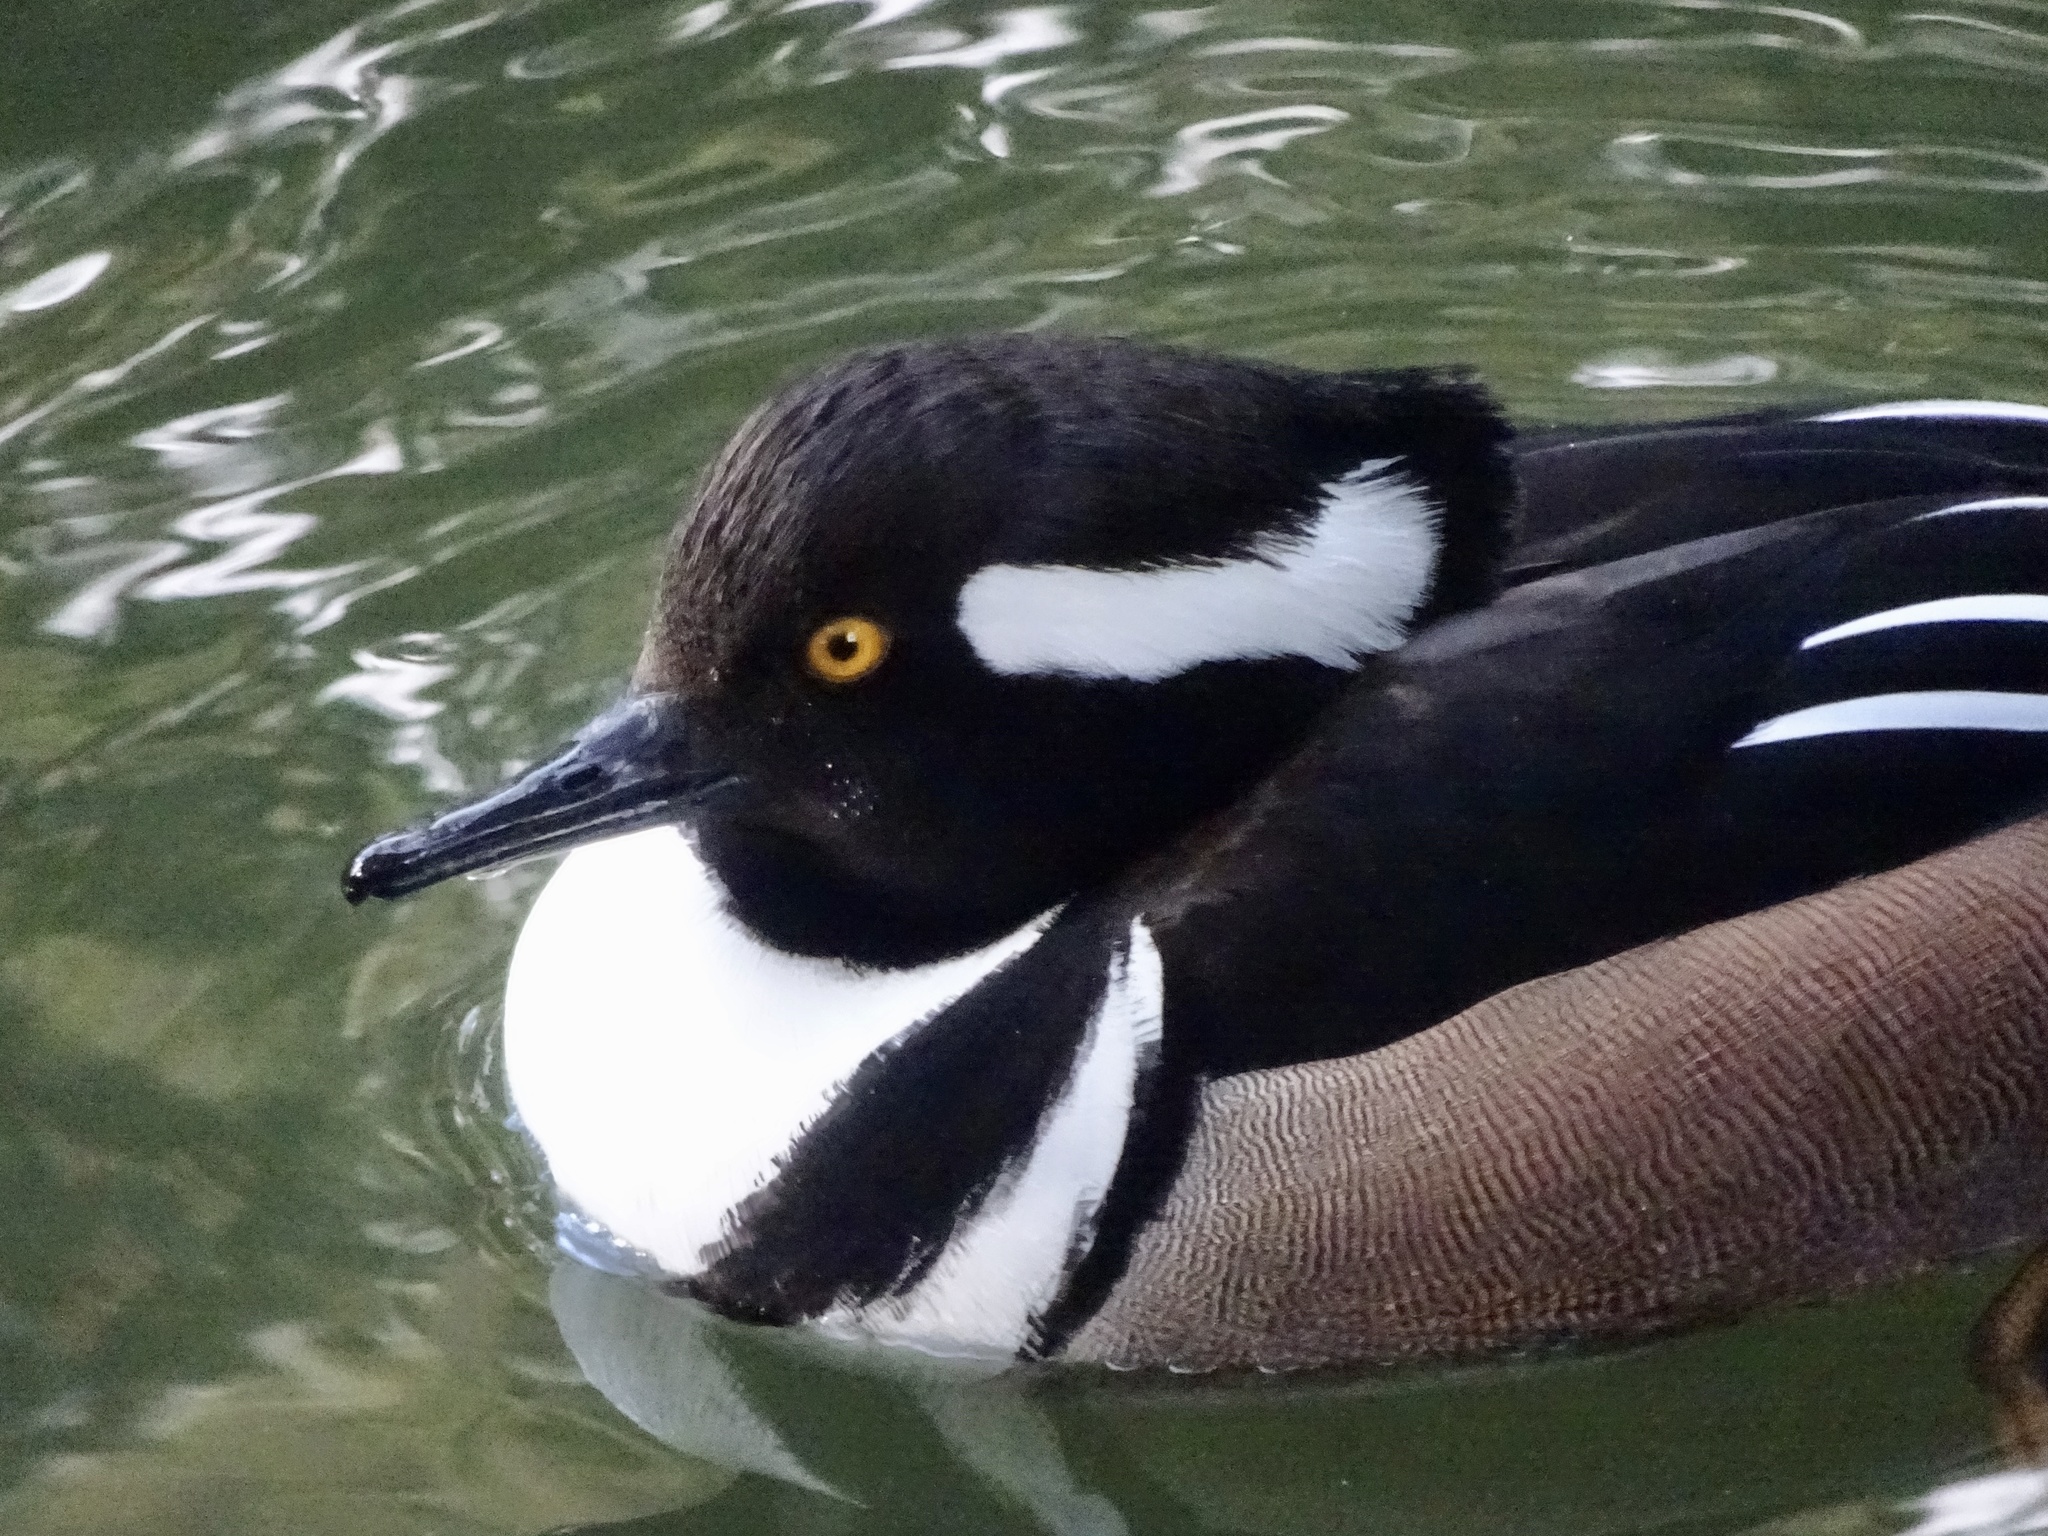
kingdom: Animalia
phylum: Chordata
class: Aves
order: Anseriformes
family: Anatidae
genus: Lophodytes
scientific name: Lophodytes cucullatus
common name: Hooded merganser
